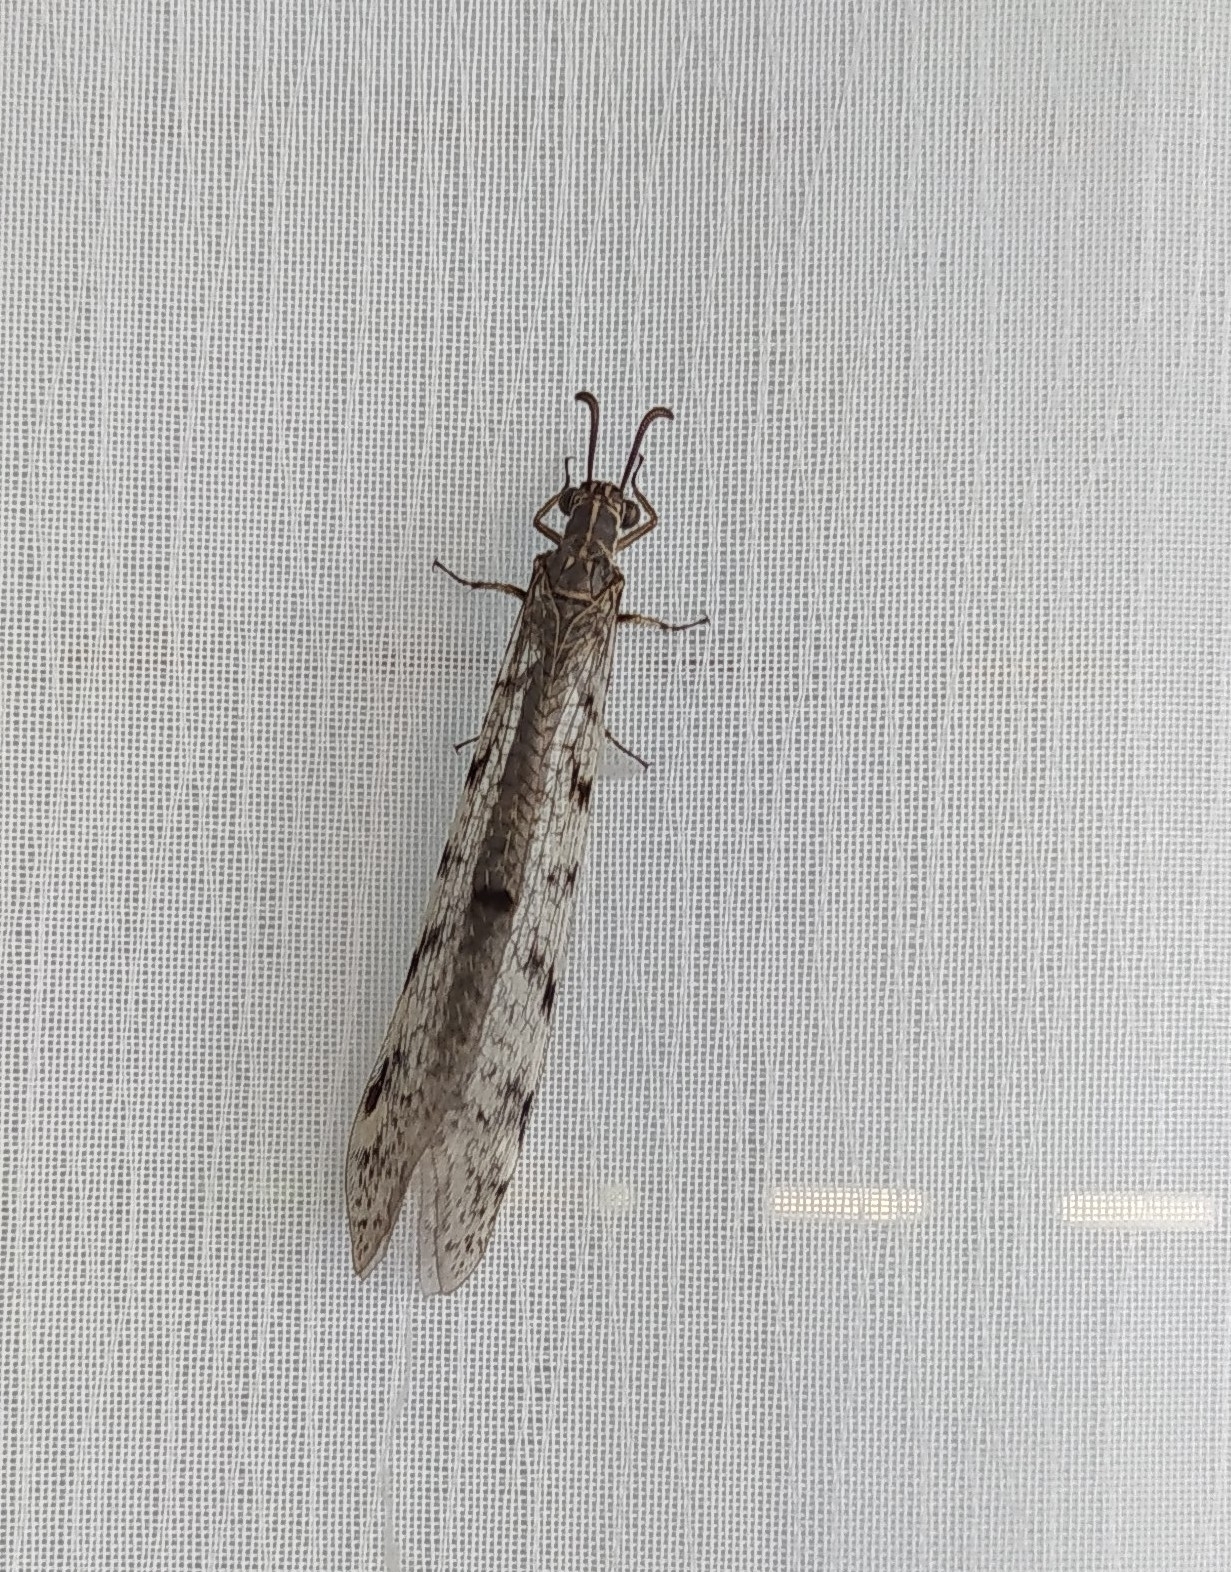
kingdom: Animalia
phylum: Arthropoda
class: Insecta
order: Neuroptera
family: Myrmeleontidae
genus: Euroleon
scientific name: Euroleon nostras
